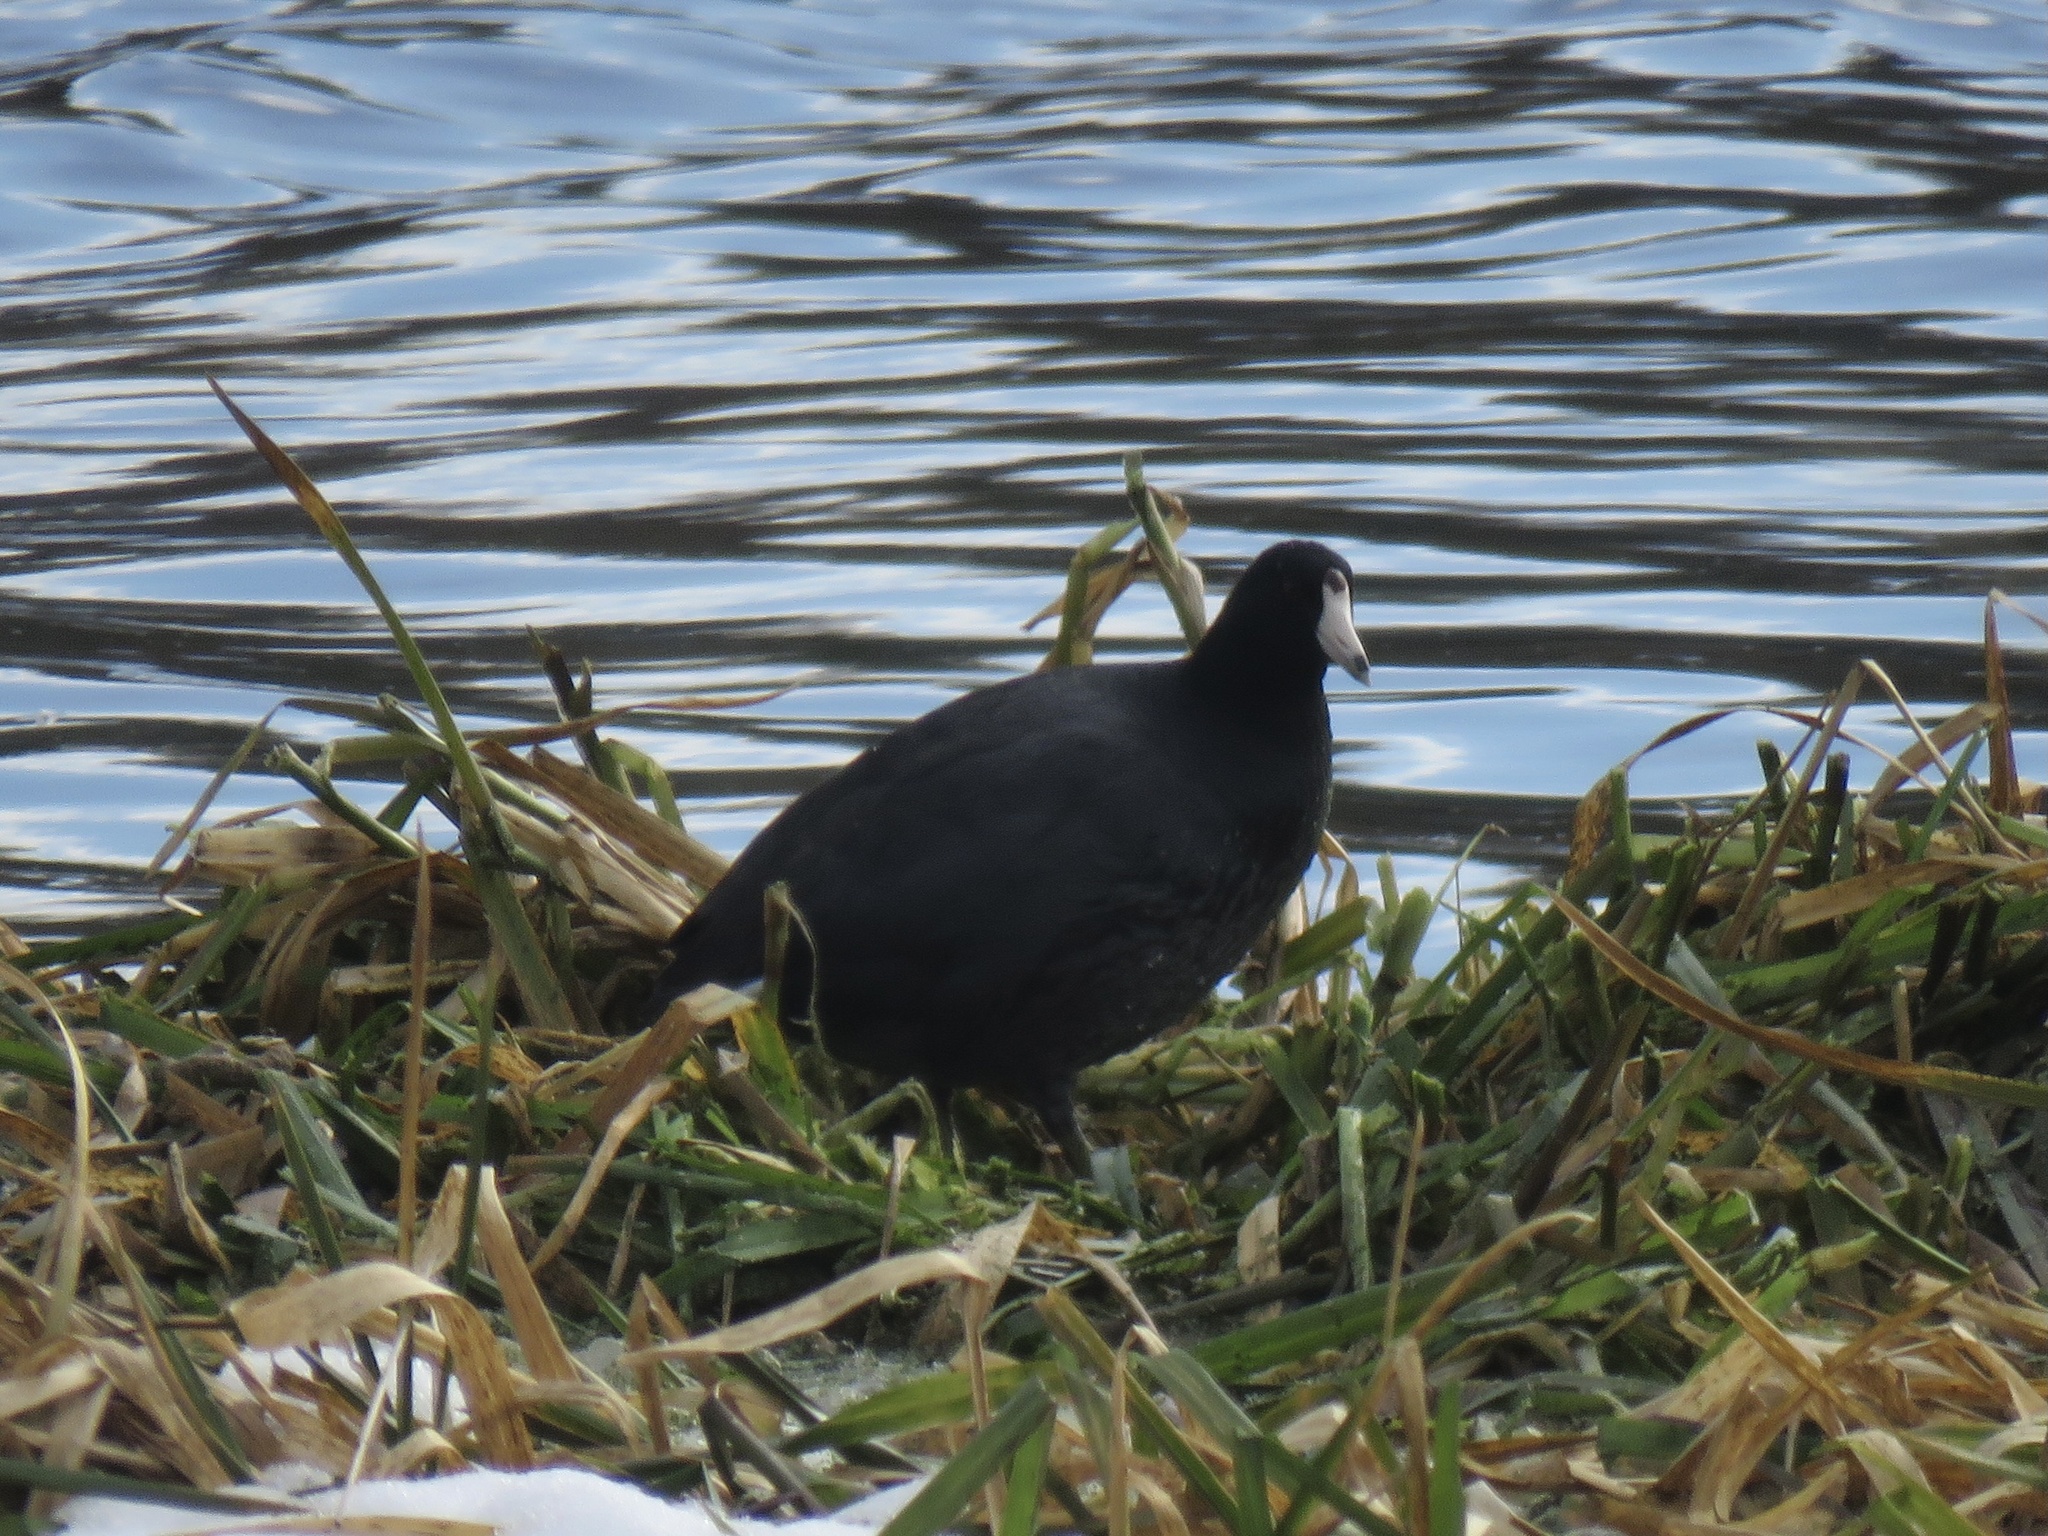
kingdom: Animalia
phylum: Chordata
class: Aves
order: Gruiformes
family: Rallidae
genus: Fulica
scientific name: Fulica americana
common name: American coot
